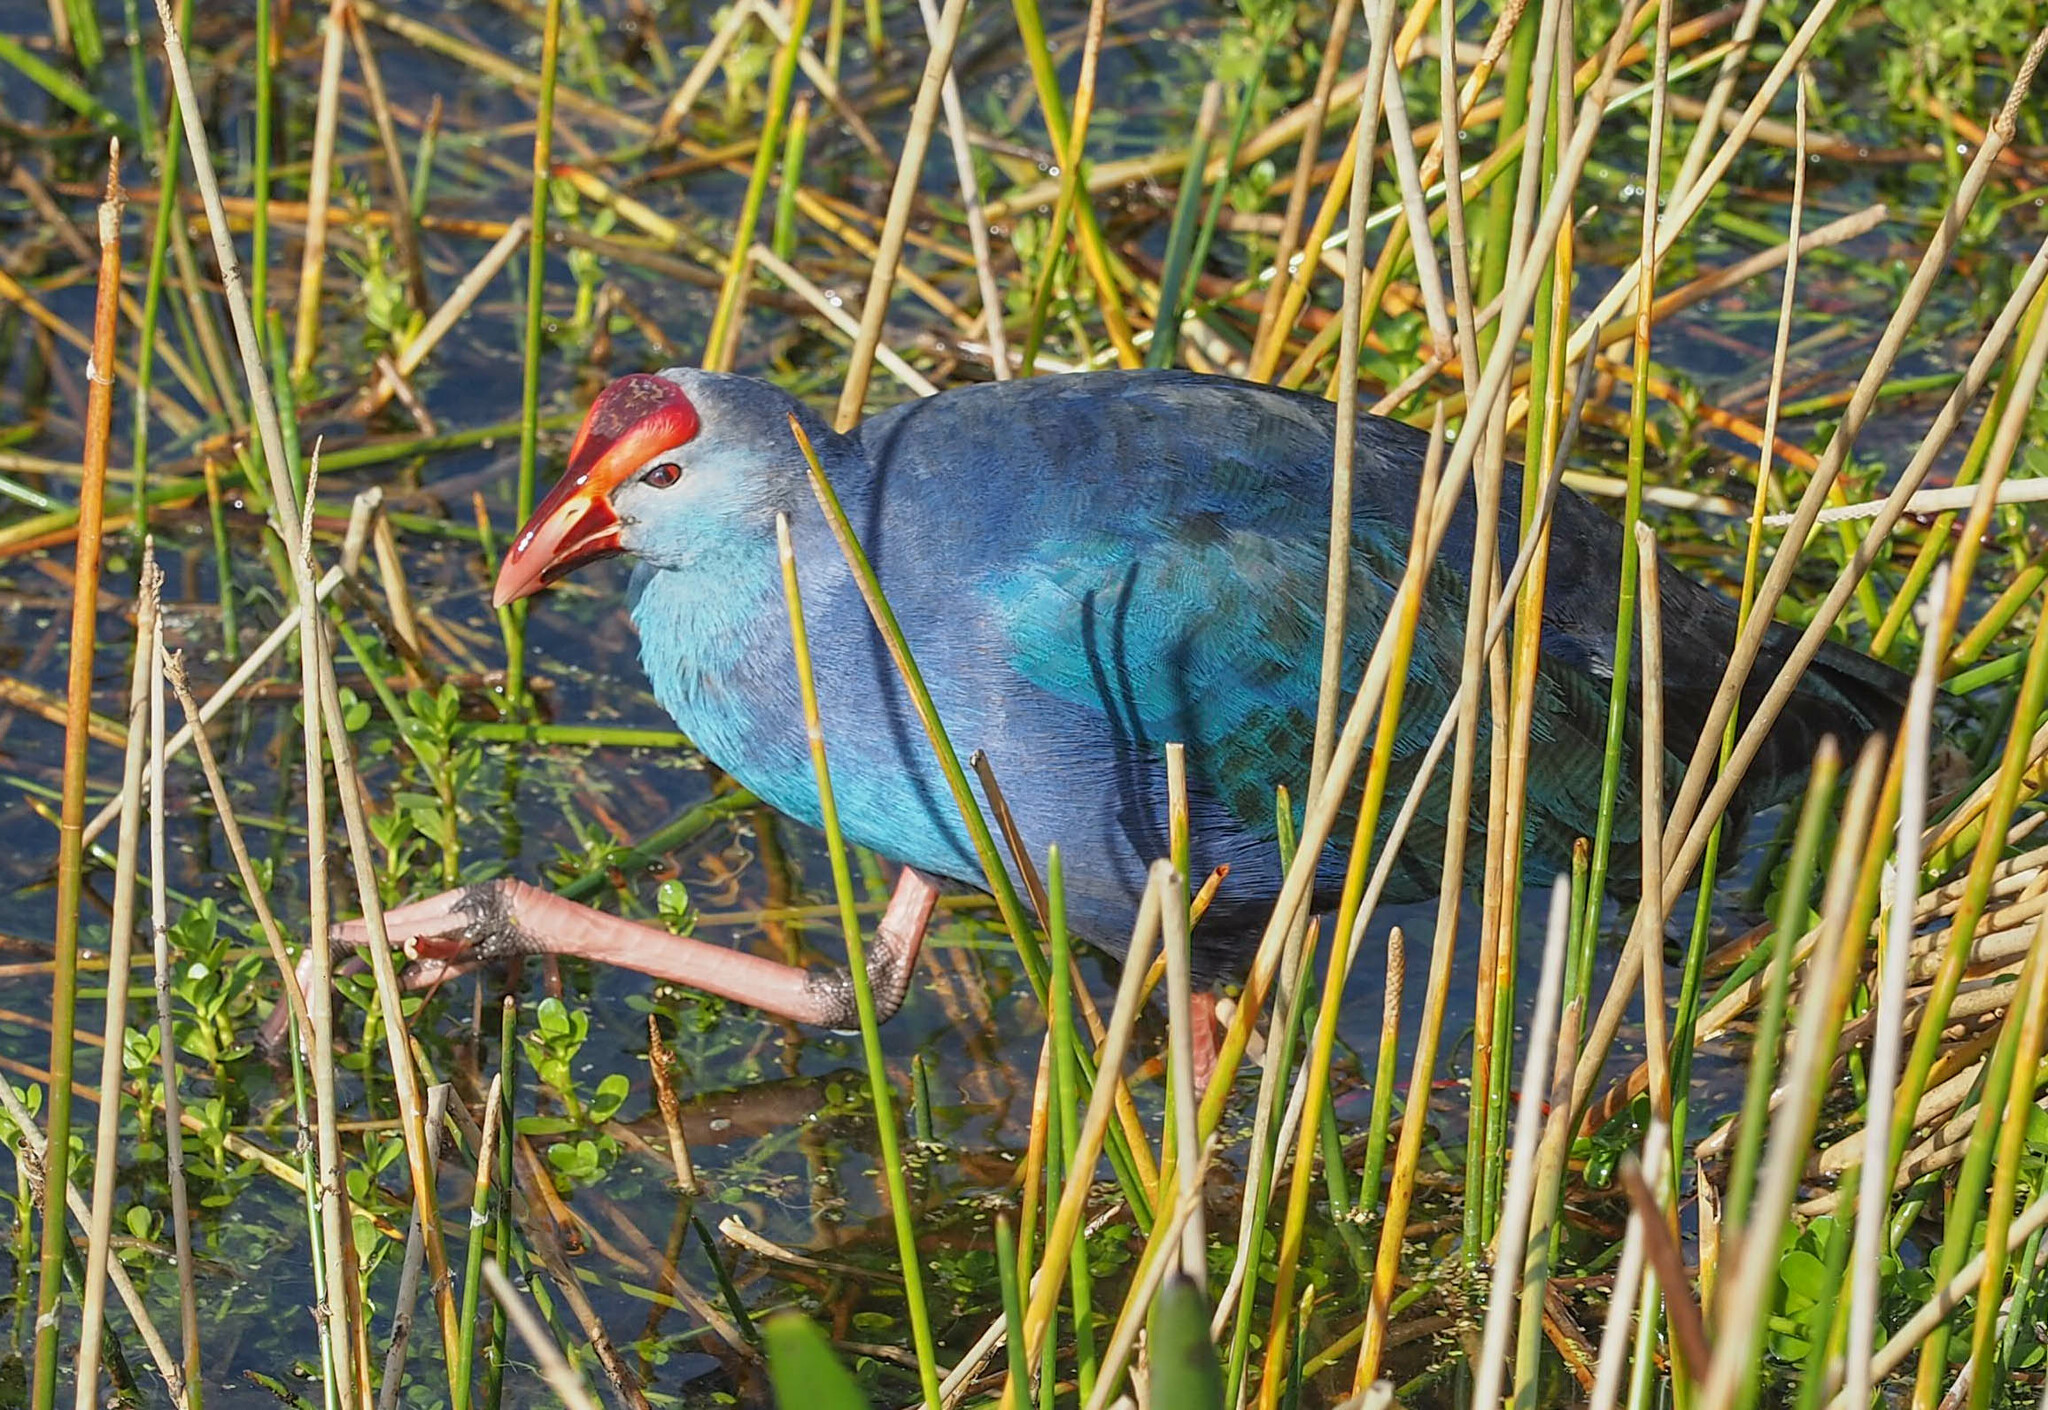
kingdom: Animalia
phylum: Chordata
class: Aves
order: Gruiformes
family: Rallidae
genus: Porphyrio
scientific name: Porphyrio porphyrio
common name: Purple swamphen
